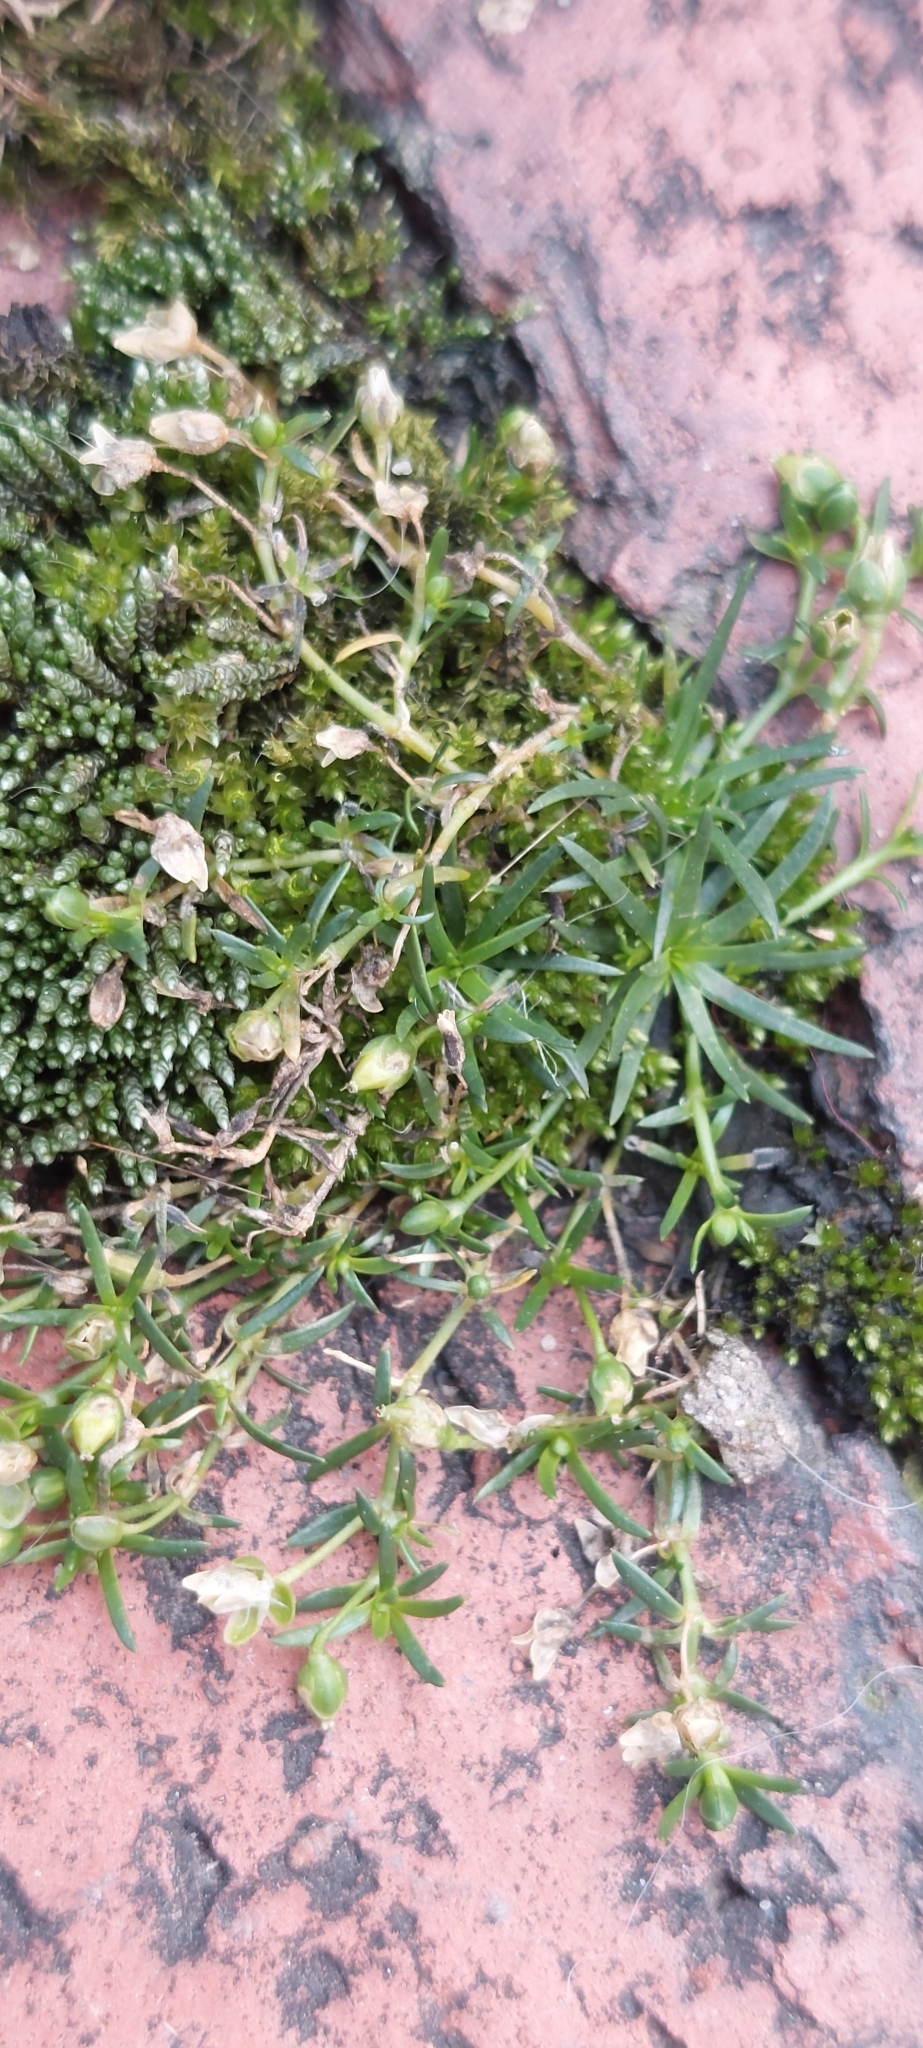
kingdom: Plantae
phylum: Tracheophyta
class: Magnoliopsida
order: Caryophyllales
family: Caryophyllaceae
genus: Sagina
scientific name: Sagina procumbens
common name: Procumbent pearlwort
